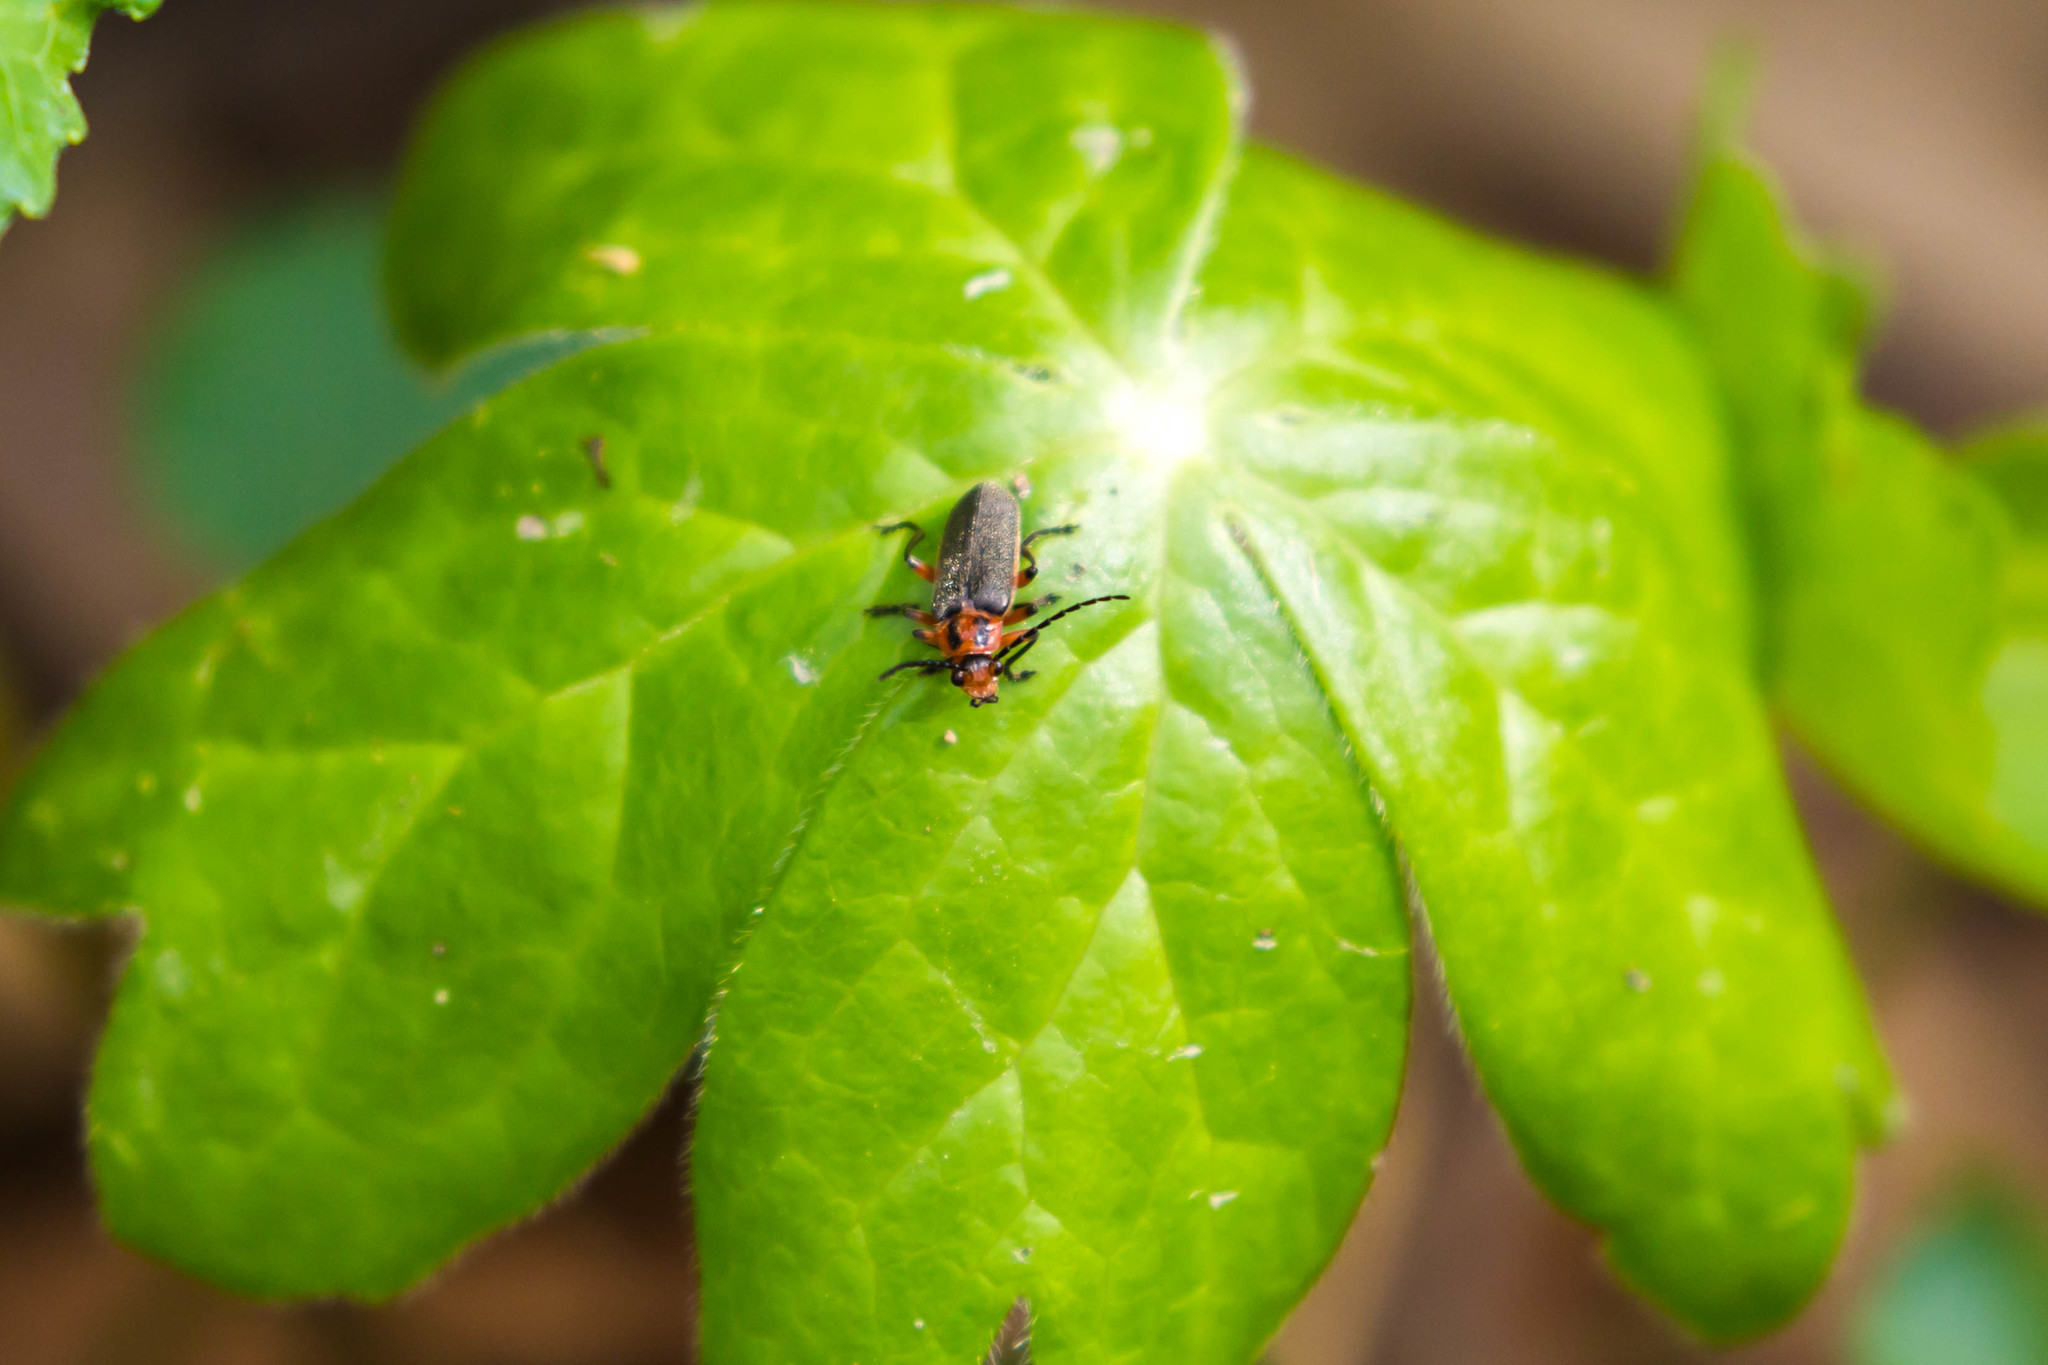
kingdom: Animalia
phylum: Arthropoda
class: Insecta
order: Coleoptera
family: Cantharidae
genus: Atalantycha
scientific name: Atalantycha bilineata
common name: Two-lined leatherwing
